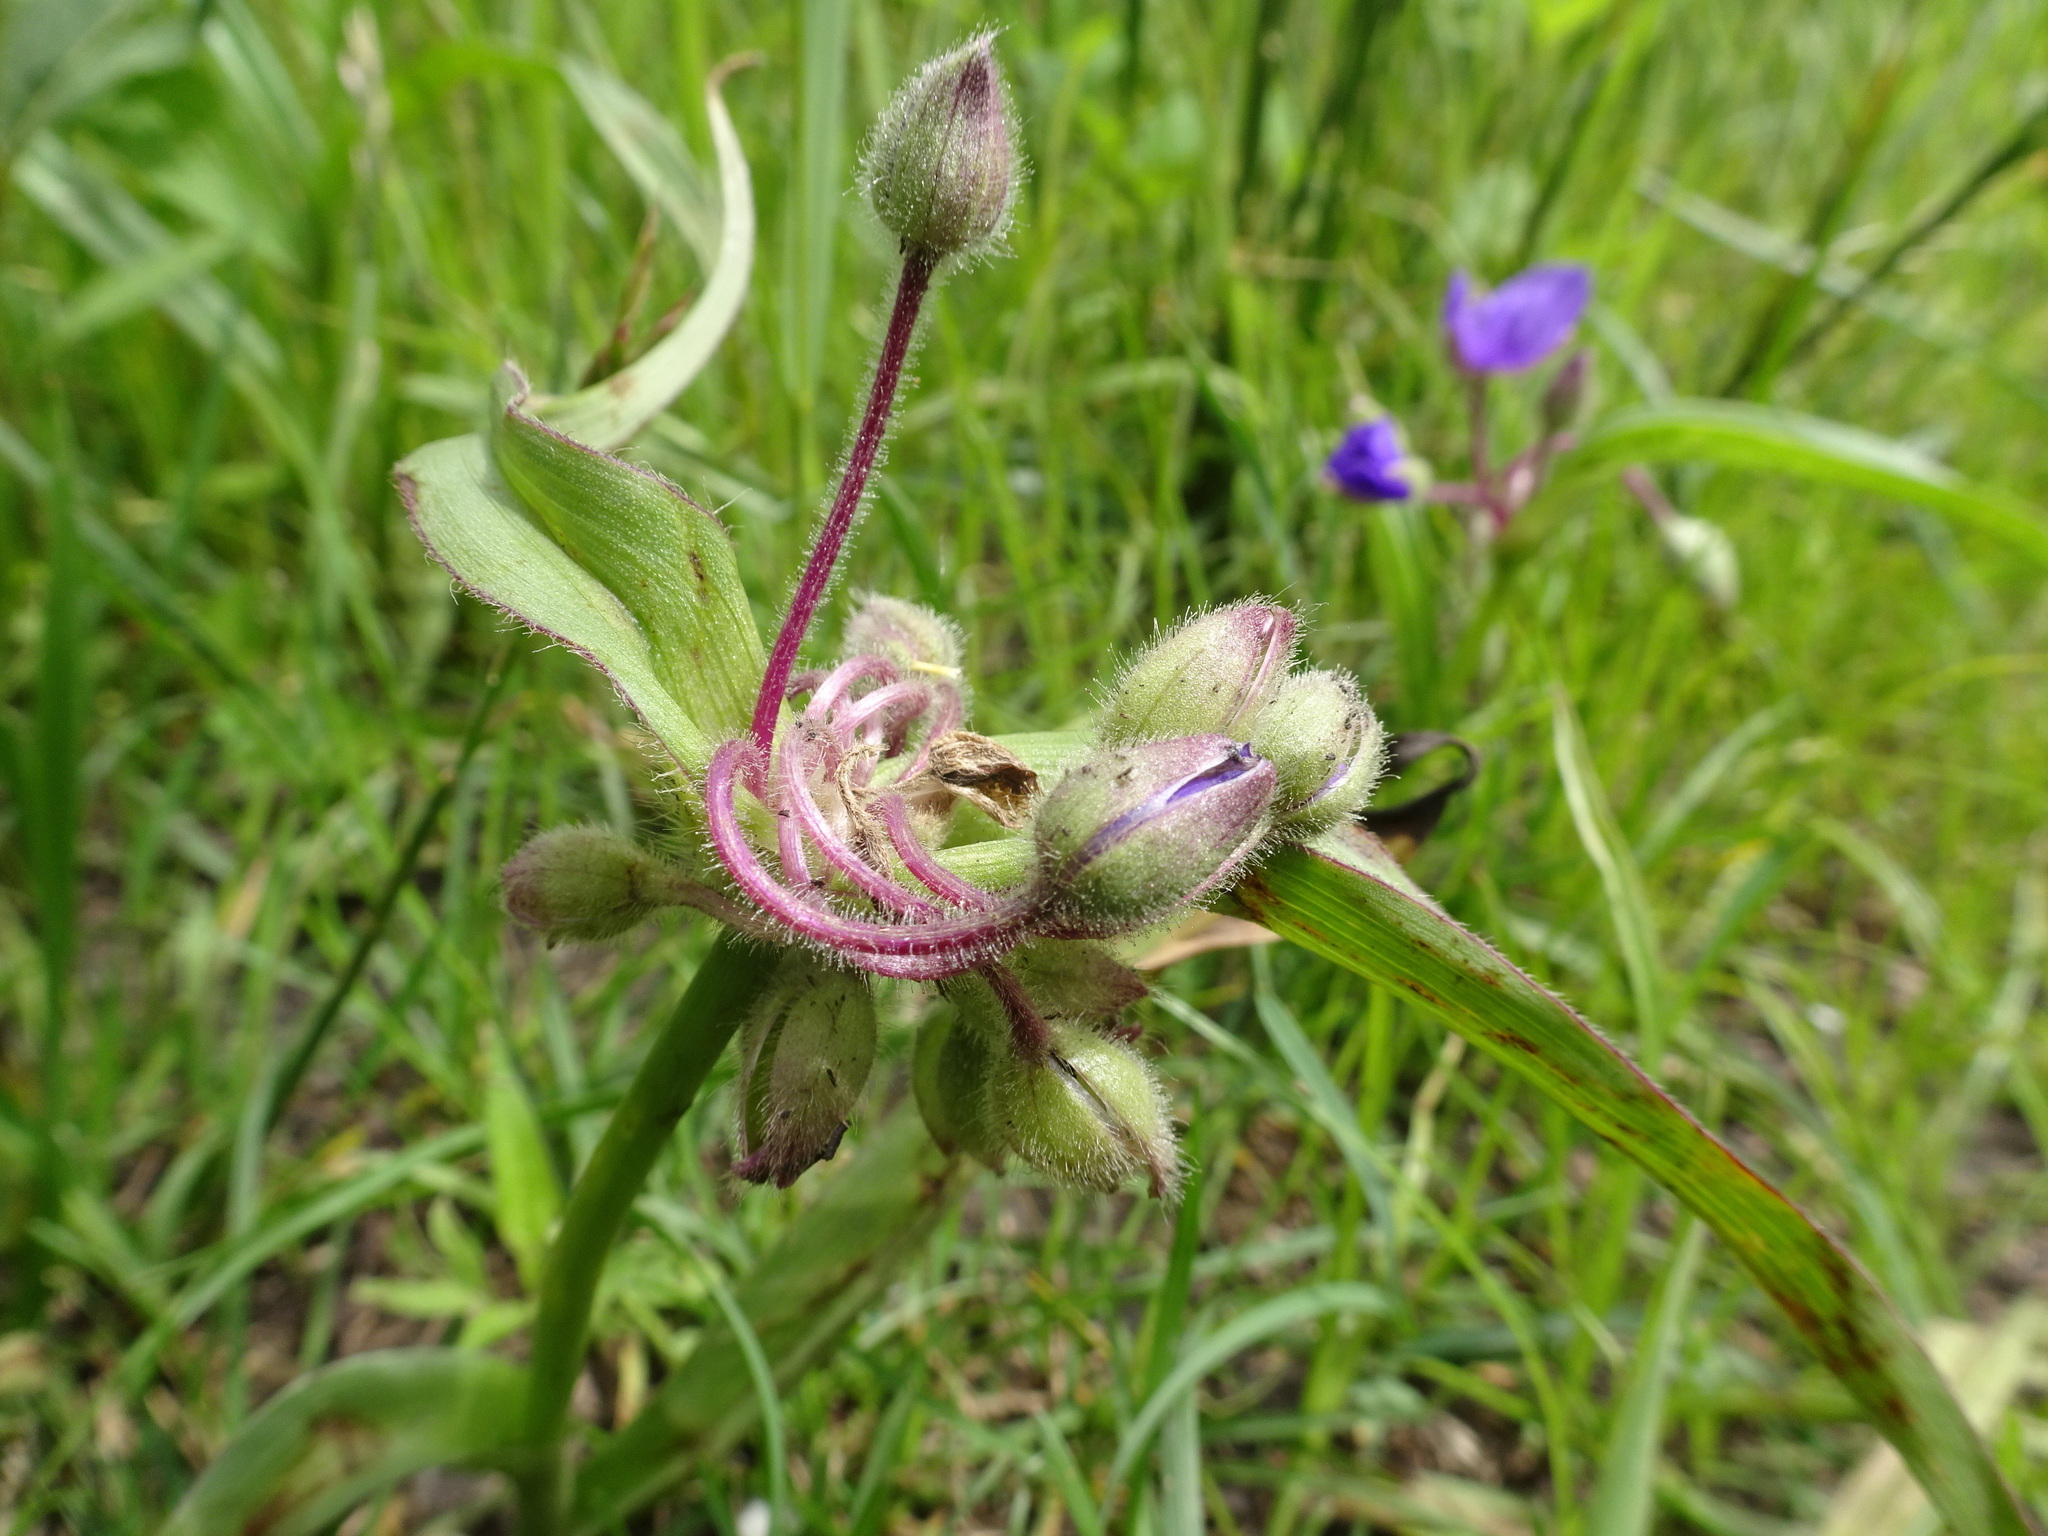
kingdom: Plantae
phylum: Tracheophyta
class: Liliopsida
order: Commelinales
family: Commelinaceae
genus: Tradescantia
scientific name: Tradescantia bracteata
